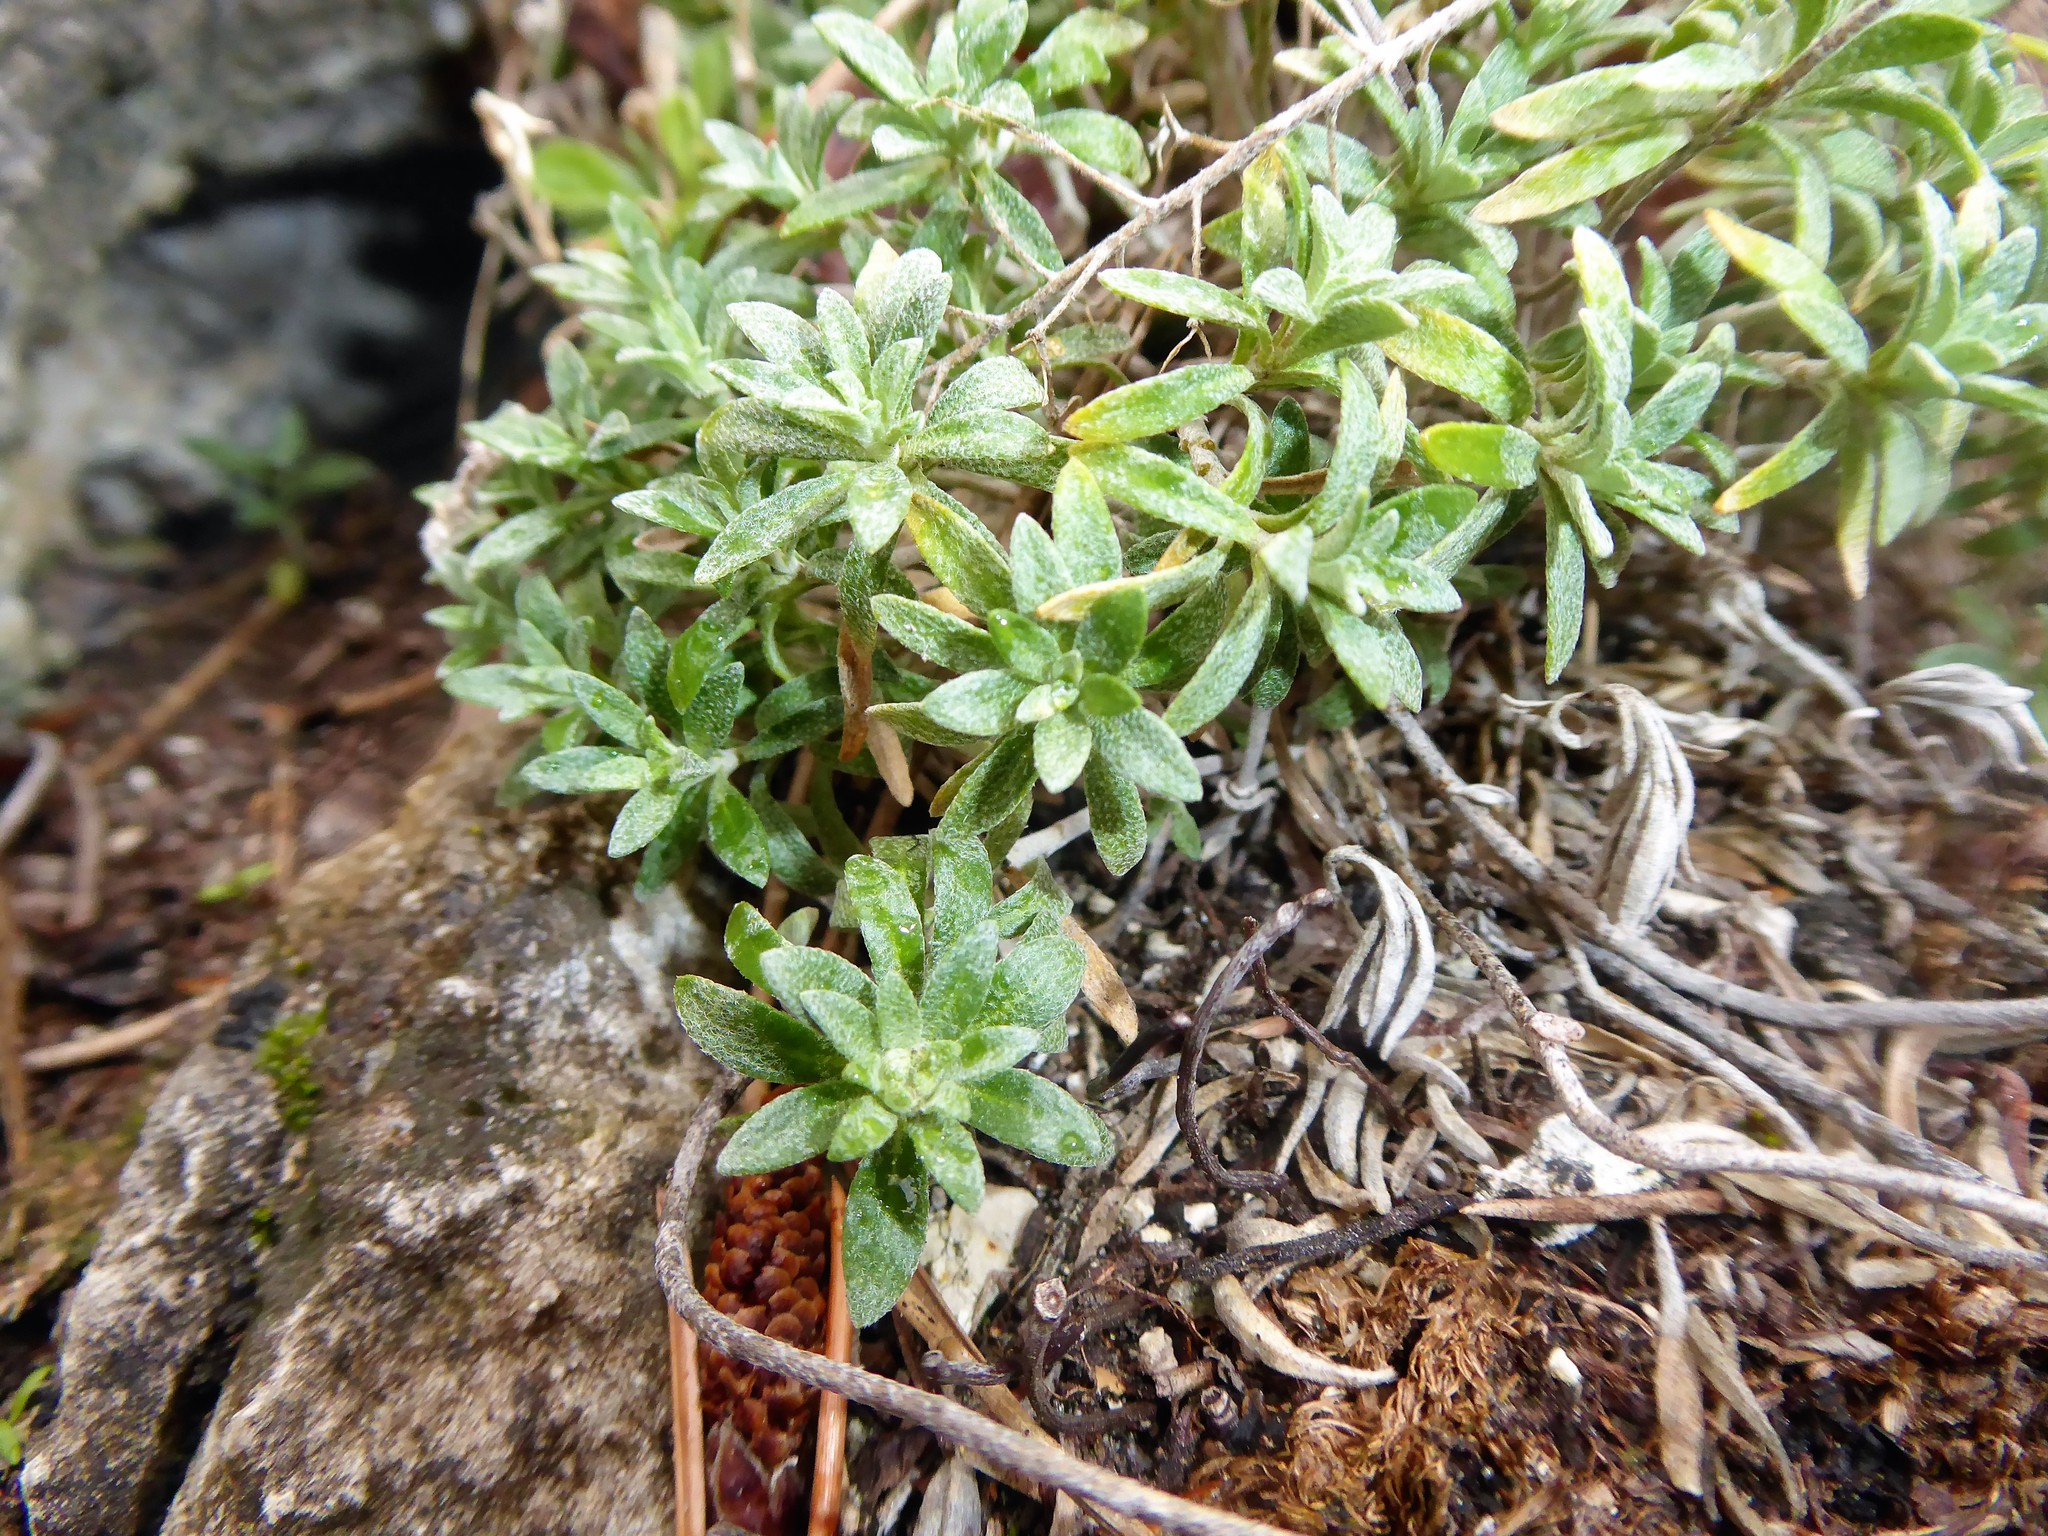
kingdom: Plantae
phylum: Tracheophyta
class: Magnoliopsida
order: Brassicales
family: Brassicaceae
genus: Alyssum
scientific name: Alyssum gmelinii
